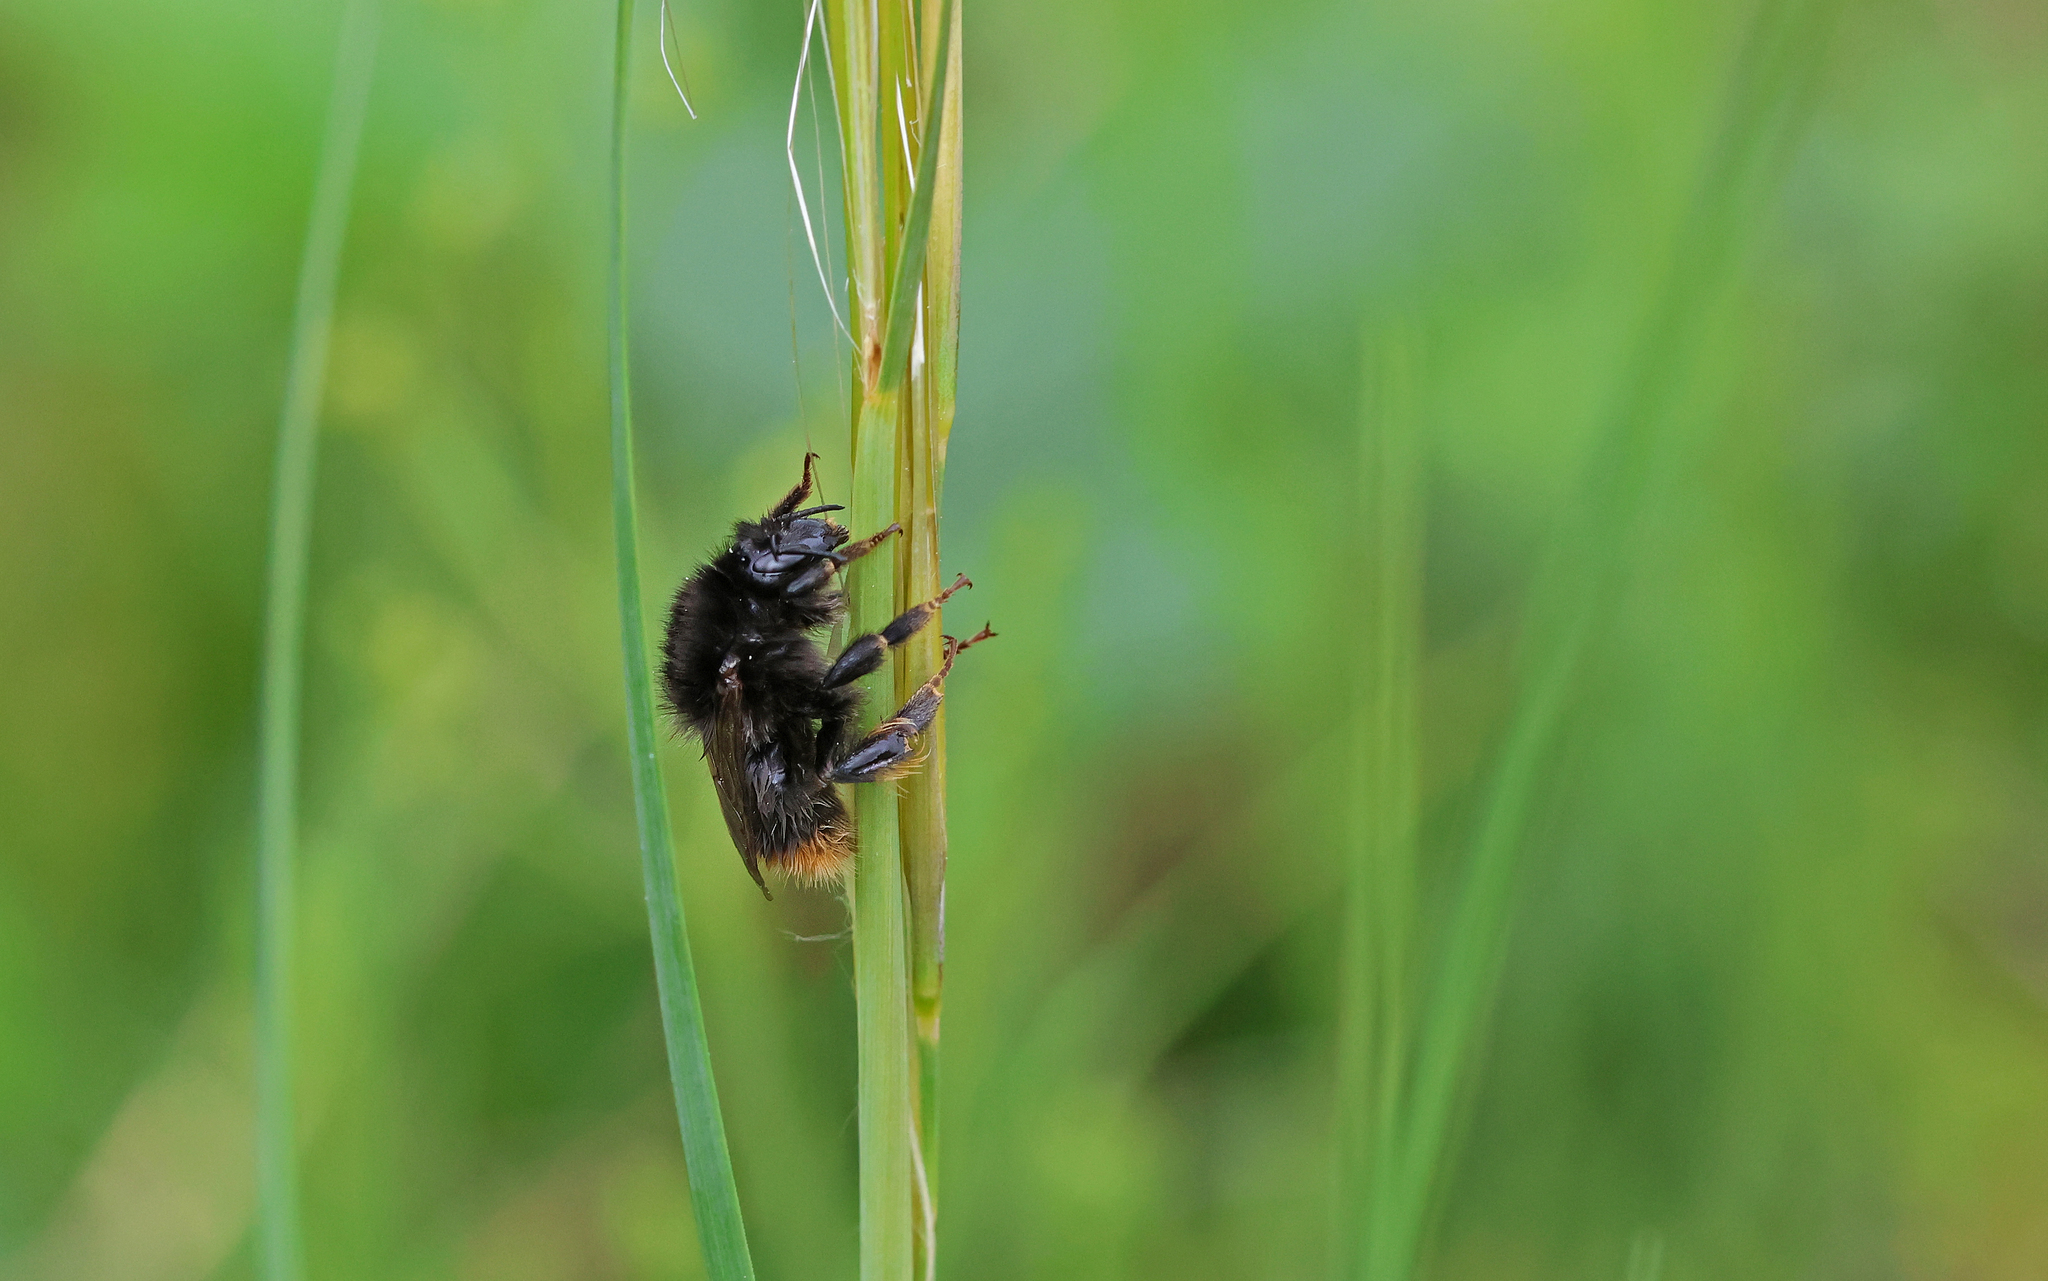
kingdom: Animalia
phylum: Arthropoda
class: Insecta
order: Hymenoptera
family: Apidae
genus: Bombus
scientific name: Bombus ruderarius
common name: Red-shanked carder-bee
